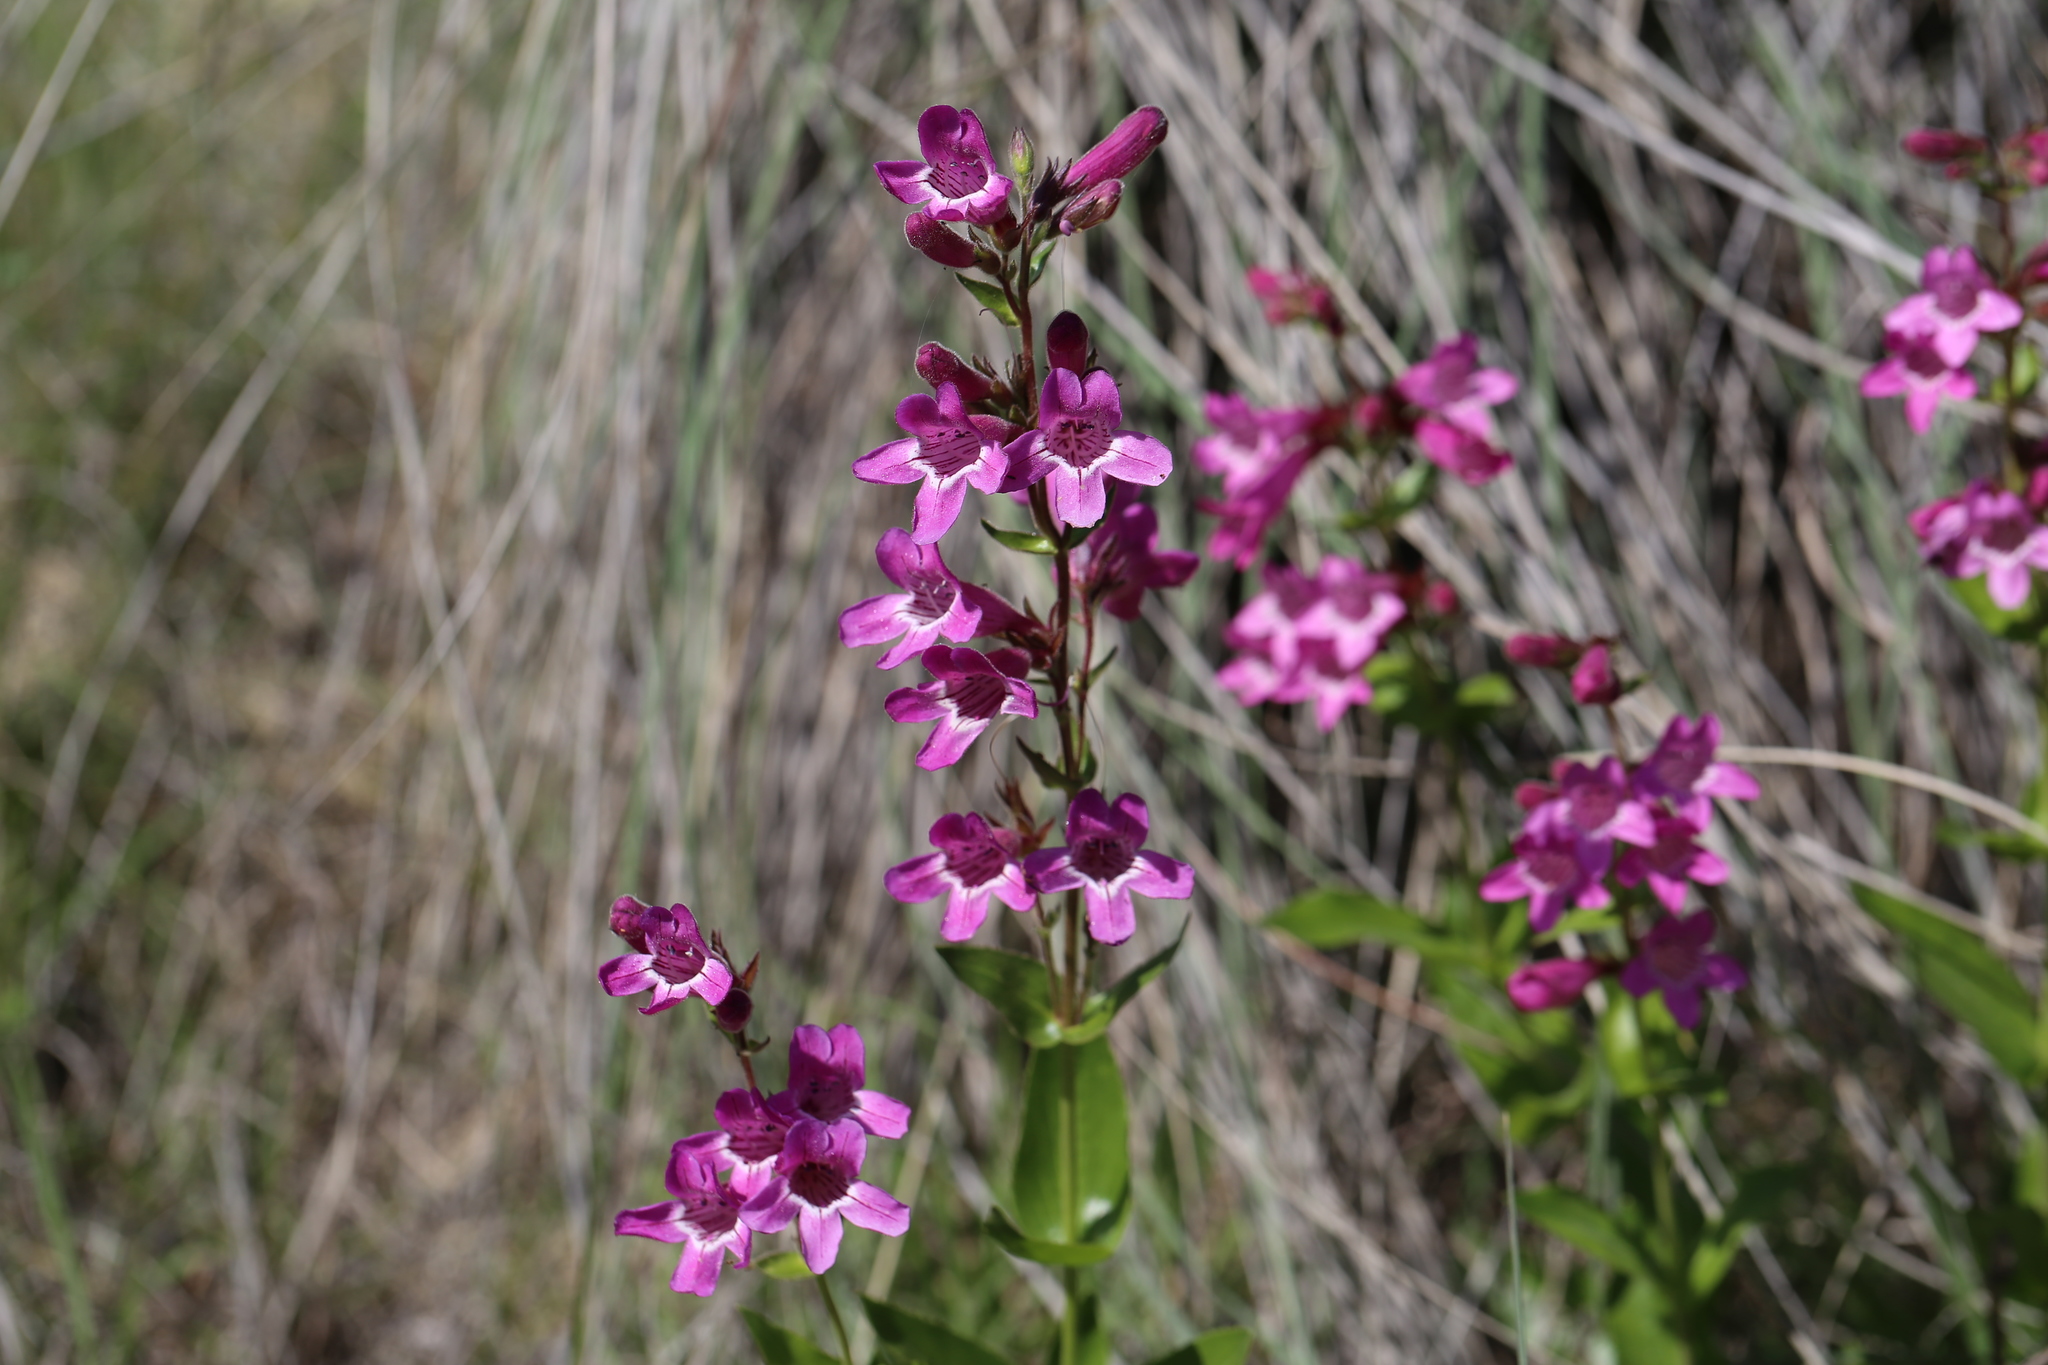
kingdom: Plantae
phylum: Tracheophyta
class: Magnoliopsida
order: Lamiales
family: Plantaginaceae
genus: Penstemon
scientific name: Penstemon triflorus
